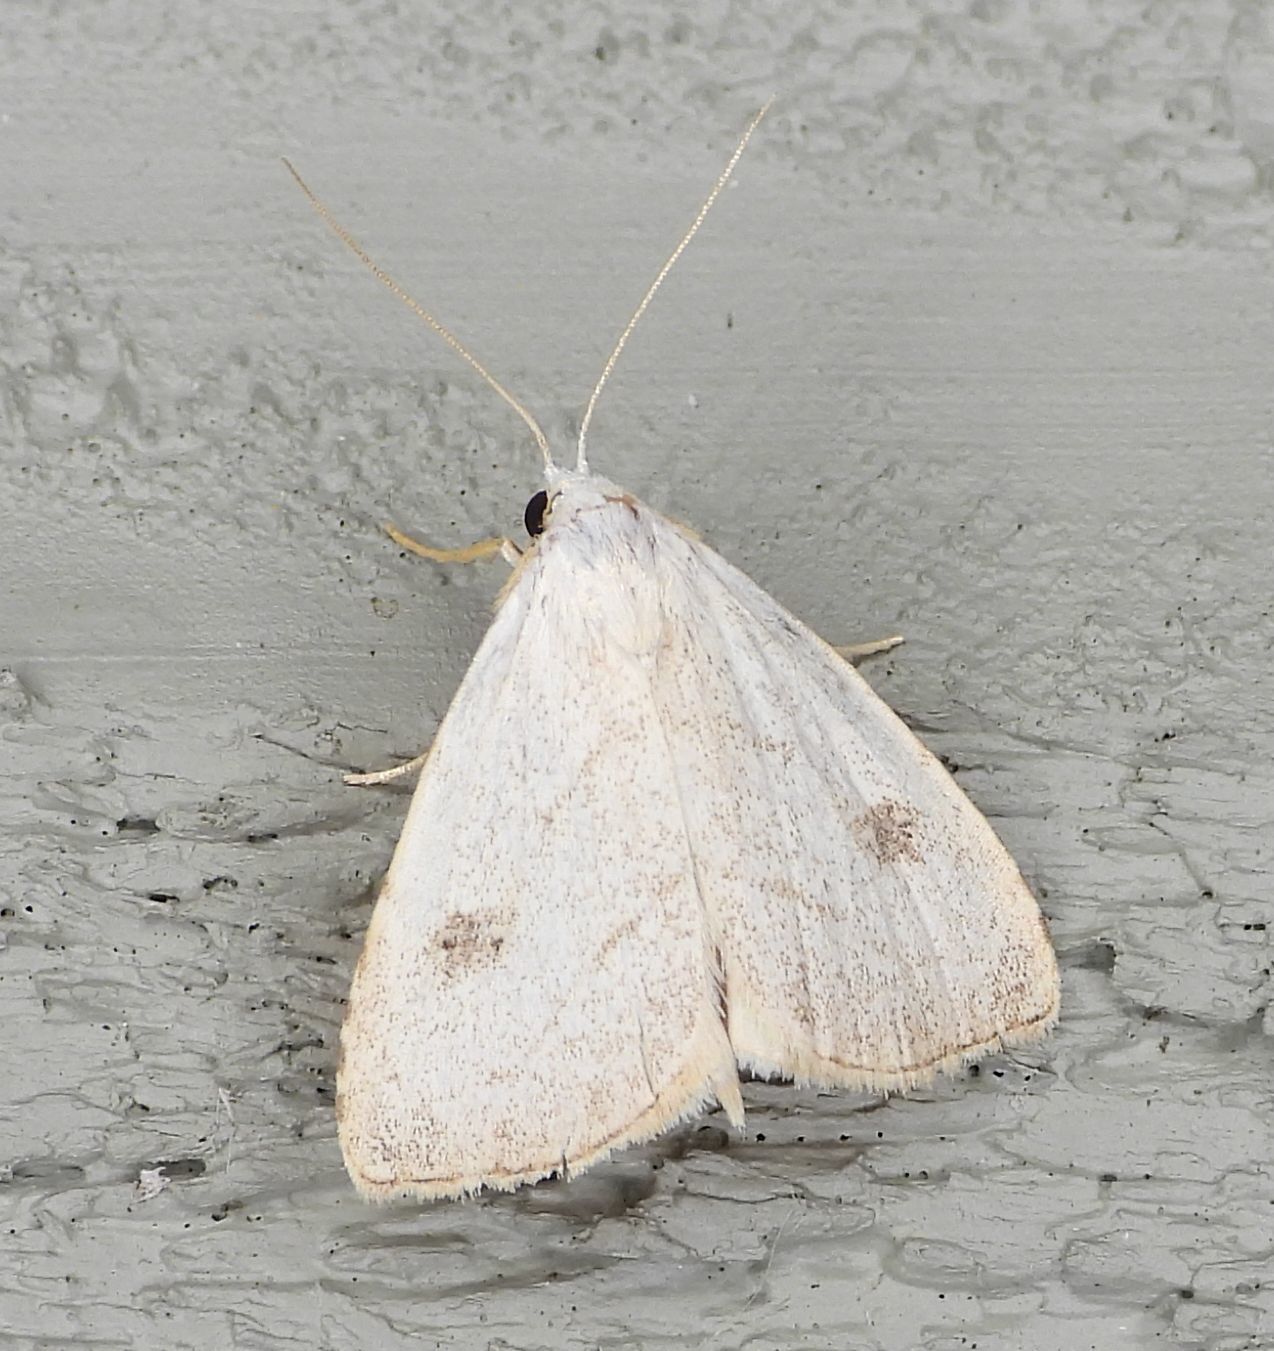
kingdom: Animalia
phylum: Arthropoda
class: Insecta
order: Lepidoptera
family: Erebidae
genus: Rivula
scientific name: Rivula propinqualis
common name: Spotted grass moth
